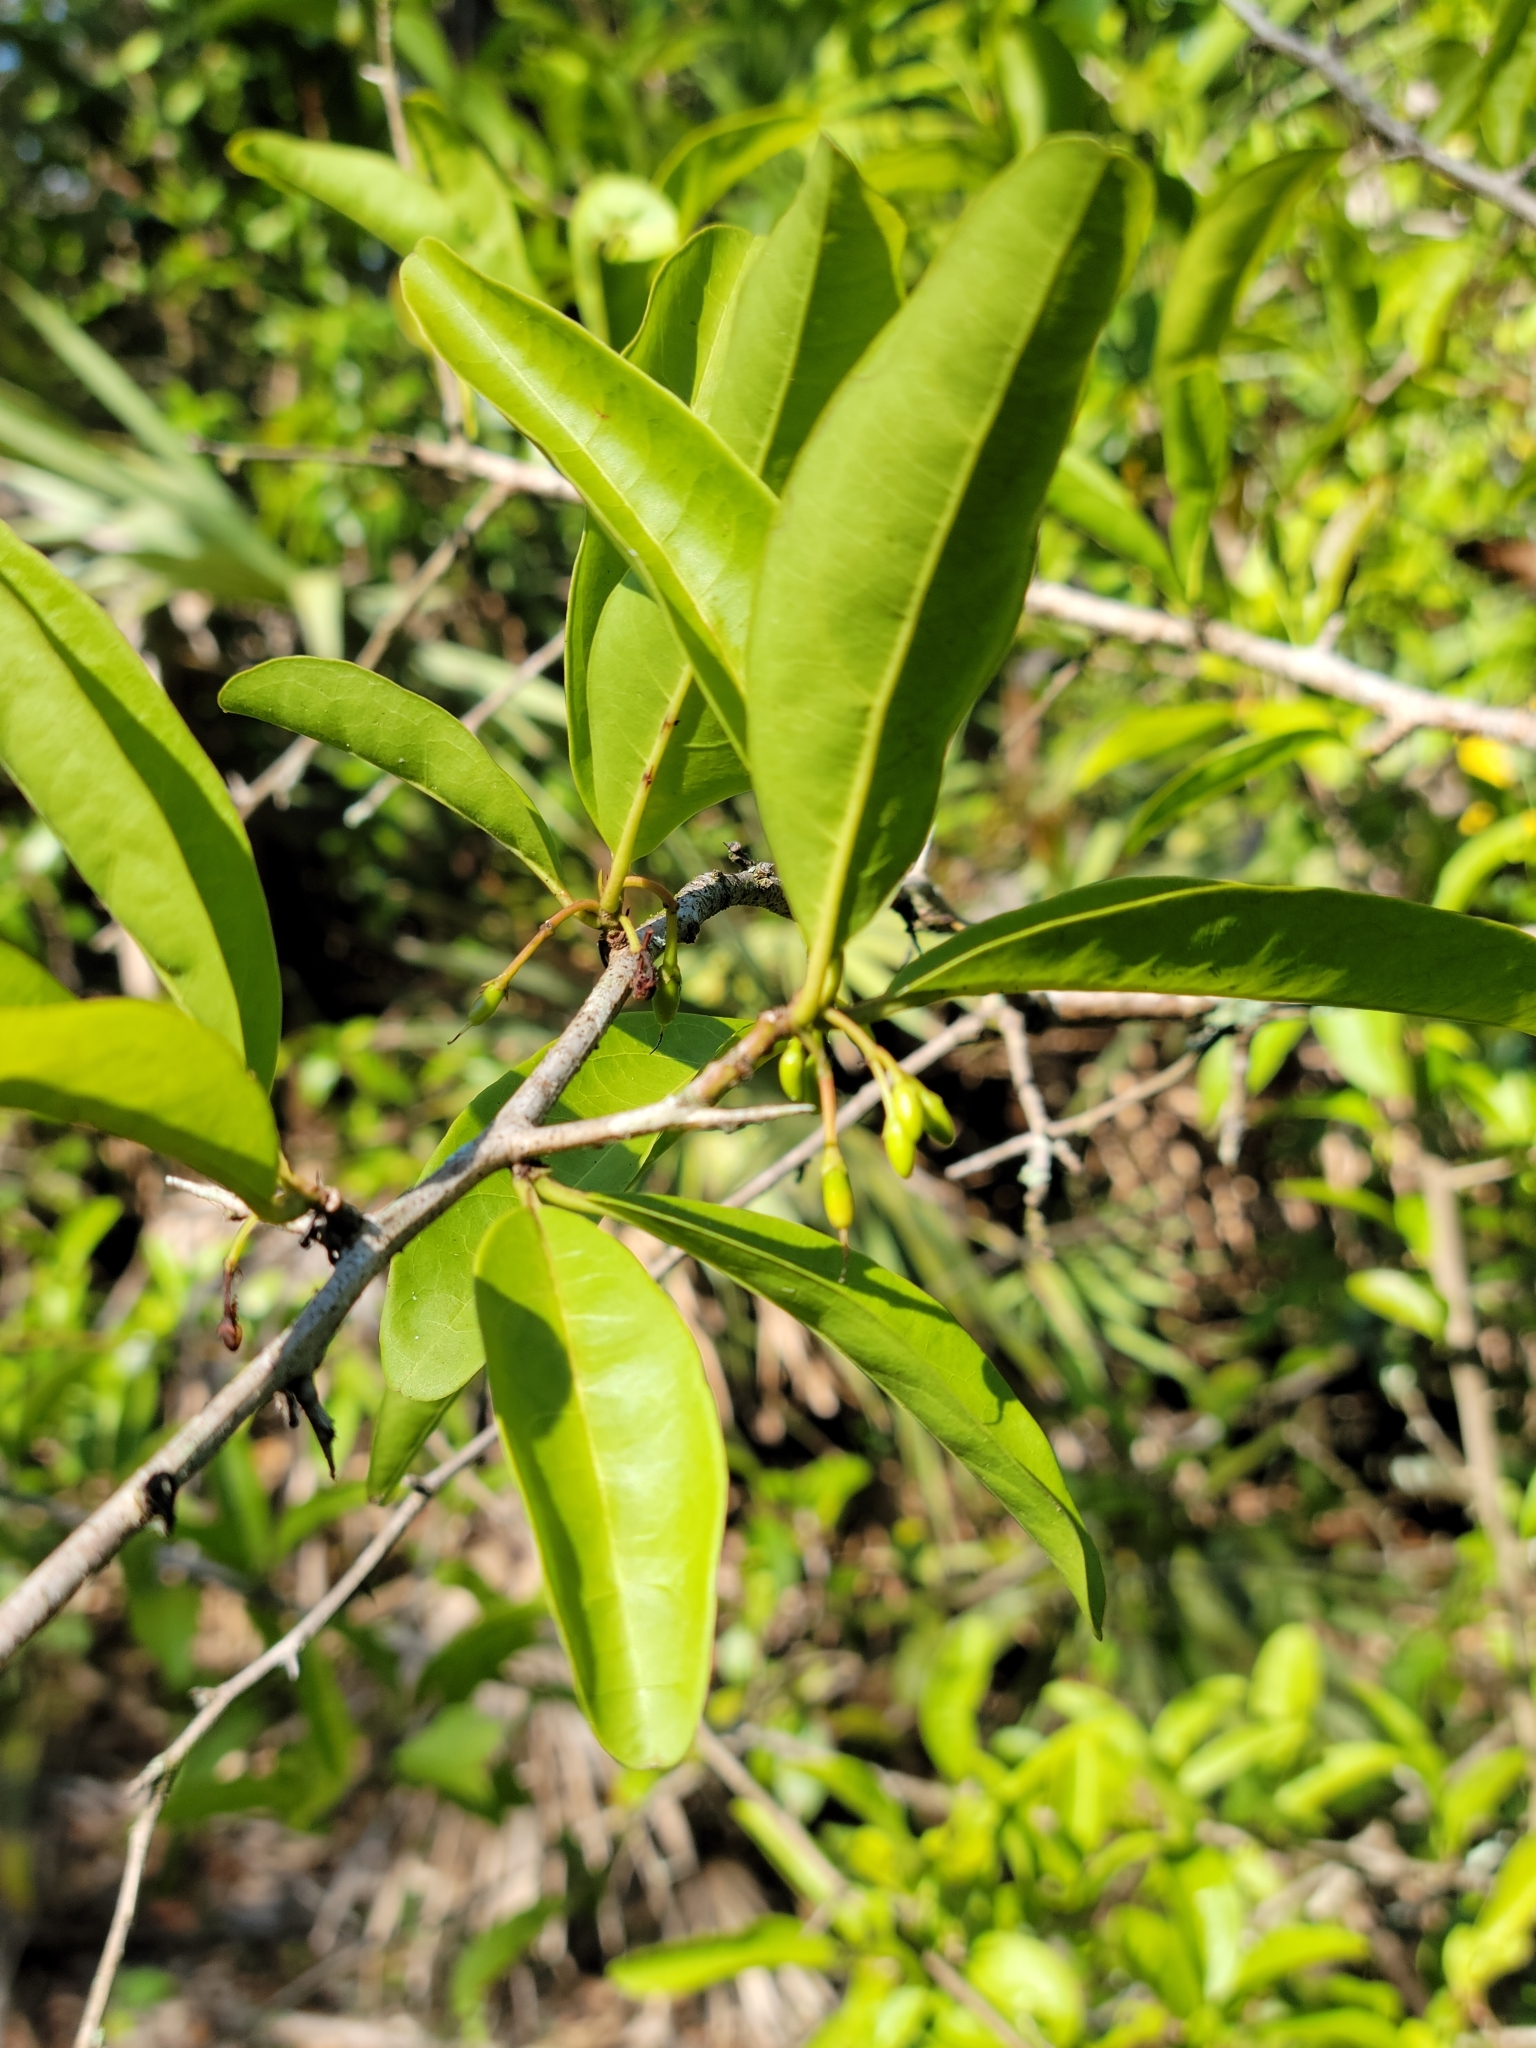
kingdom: Plantae
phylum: Tracheophyta
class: Magnoliopsida
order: Santalales
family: Ximeniaceae
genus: Ximenia
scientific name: Ximenia americana
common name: Tallowwood
